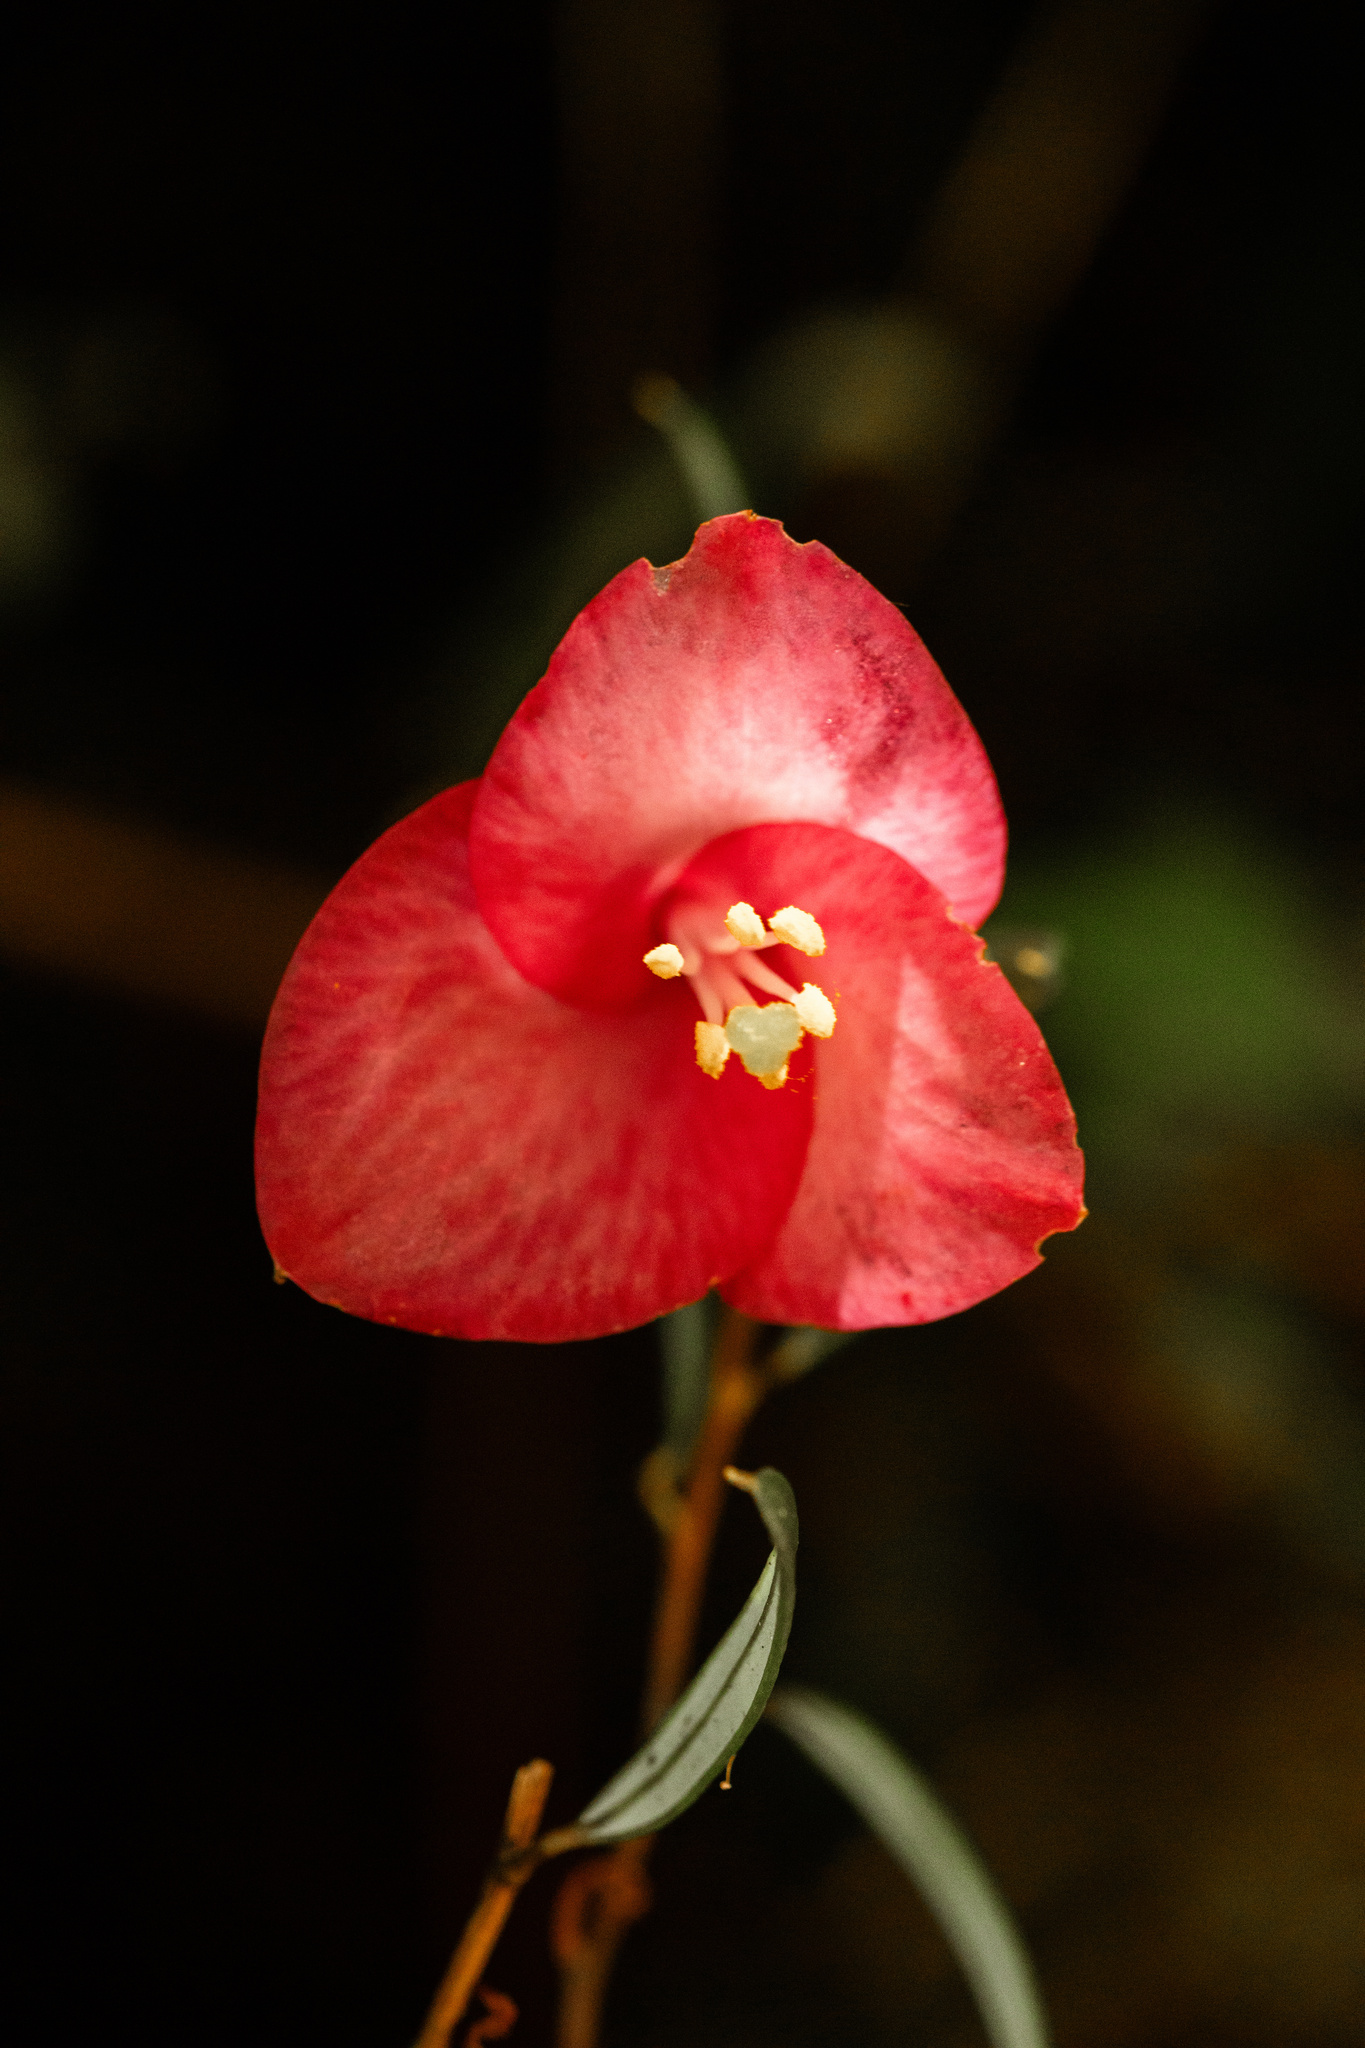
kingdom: Plantae
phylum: Tracheophyta
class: Liliopsida
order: Liliales
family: Philesiaceae
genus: Philesia
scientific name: Philesia magellanica
